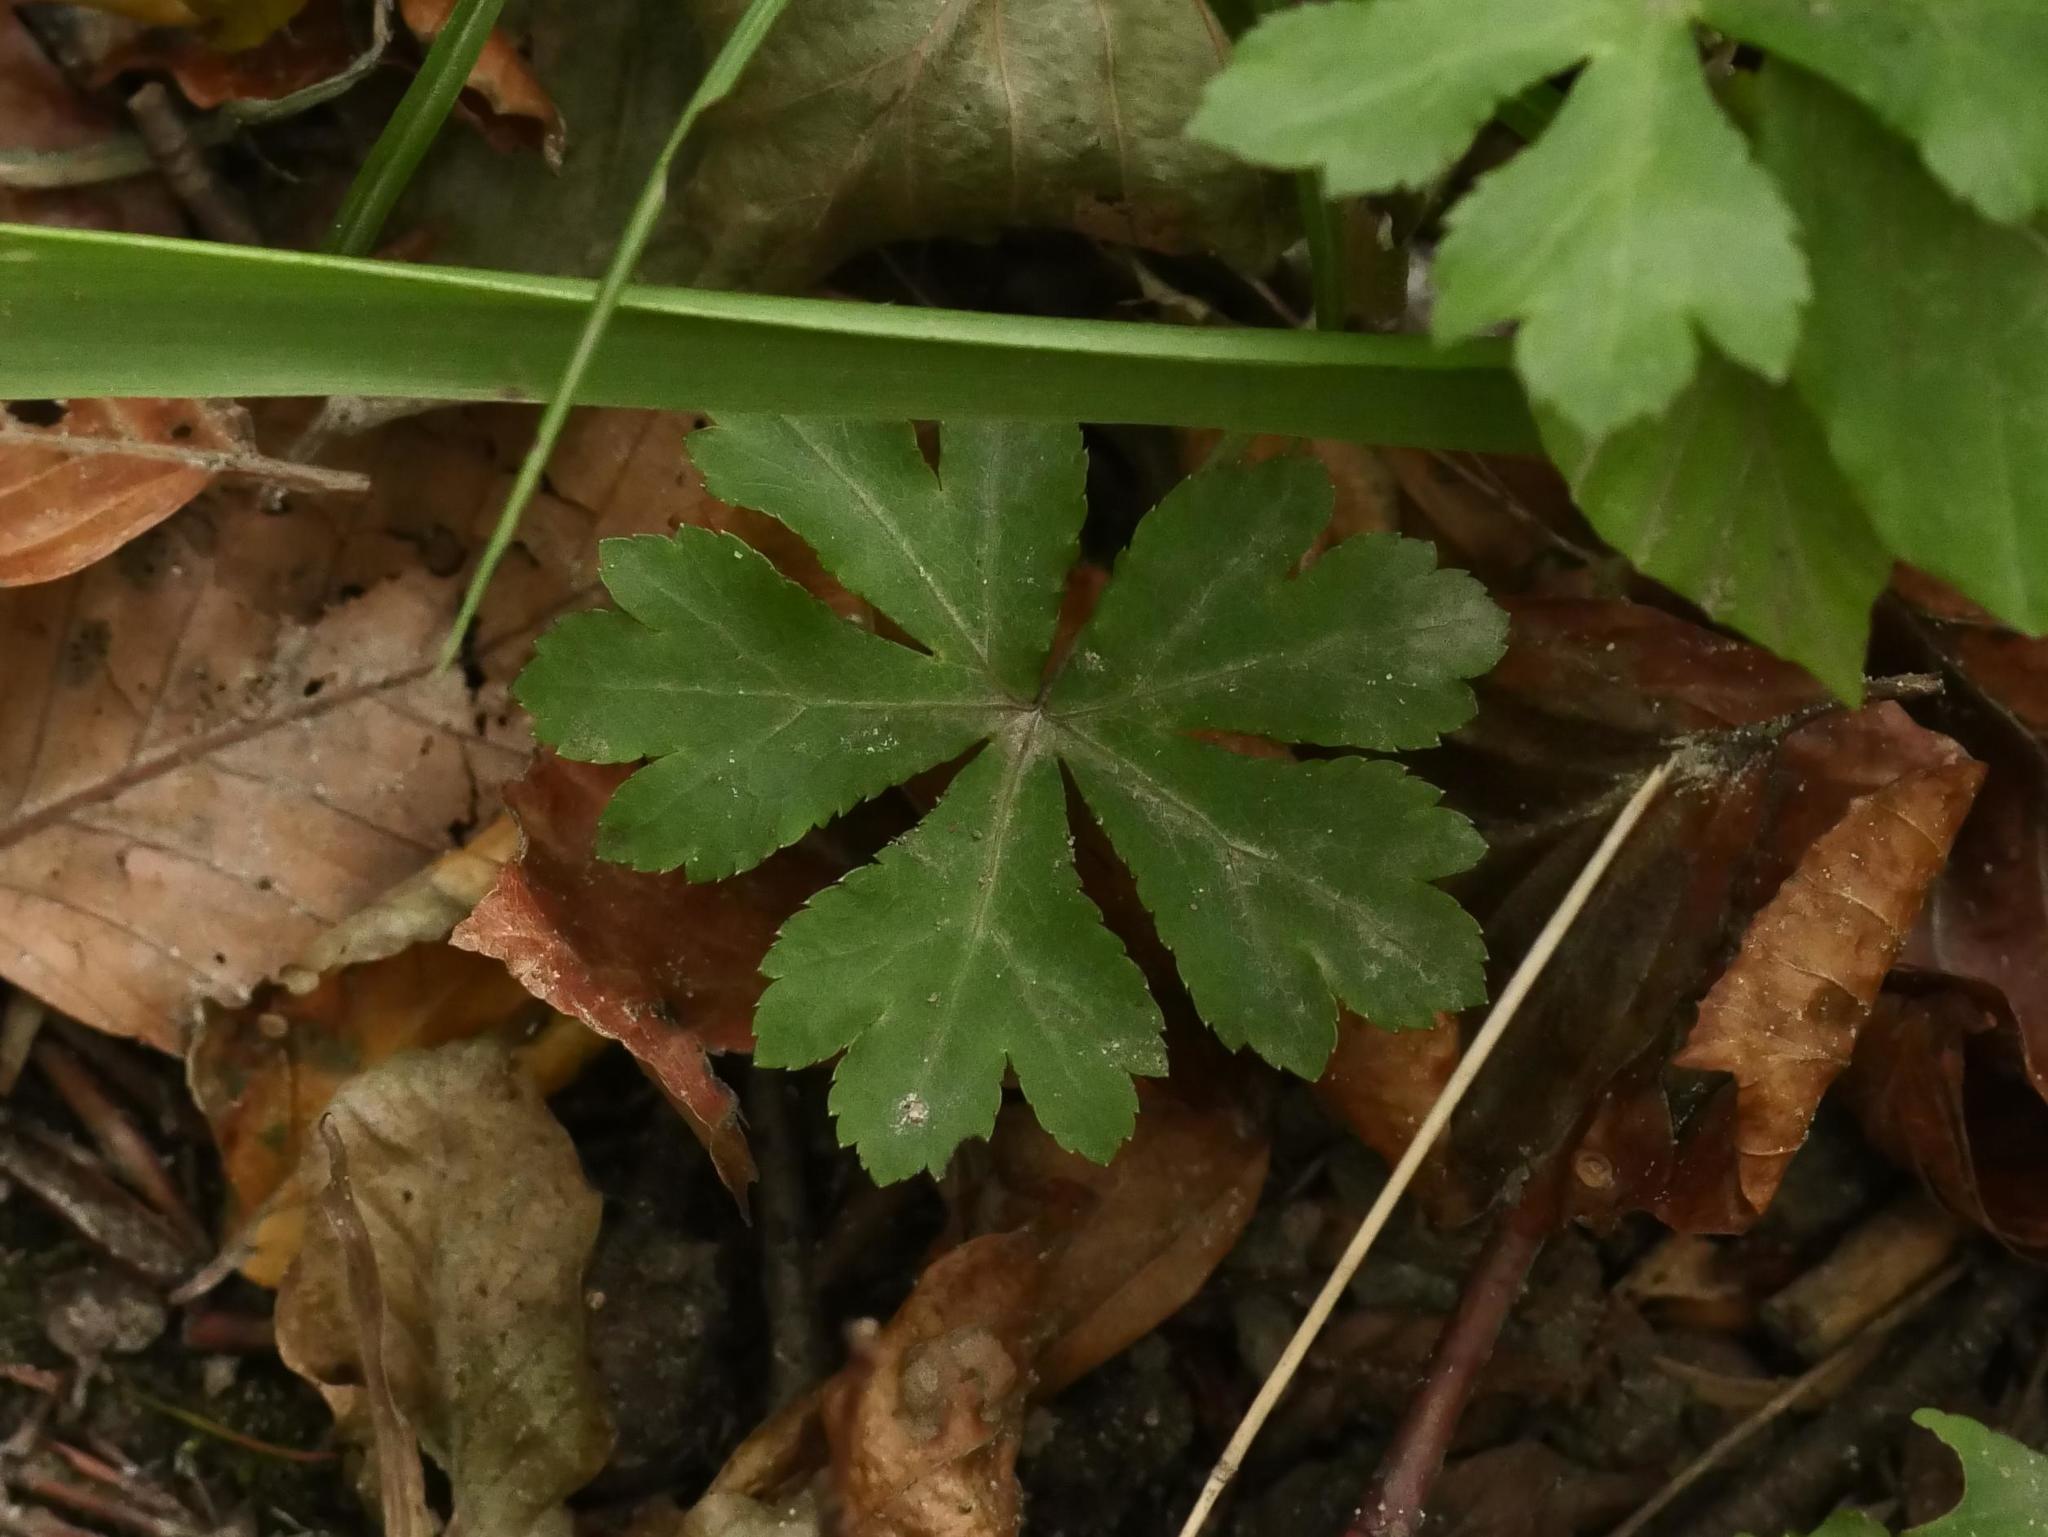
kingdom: Plantae
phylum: Tracheophyta
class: Magnoliopsida
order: Apiales
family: Apiaceae
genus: Sanicula
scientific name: Sanicula europaea
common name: Sanicle
